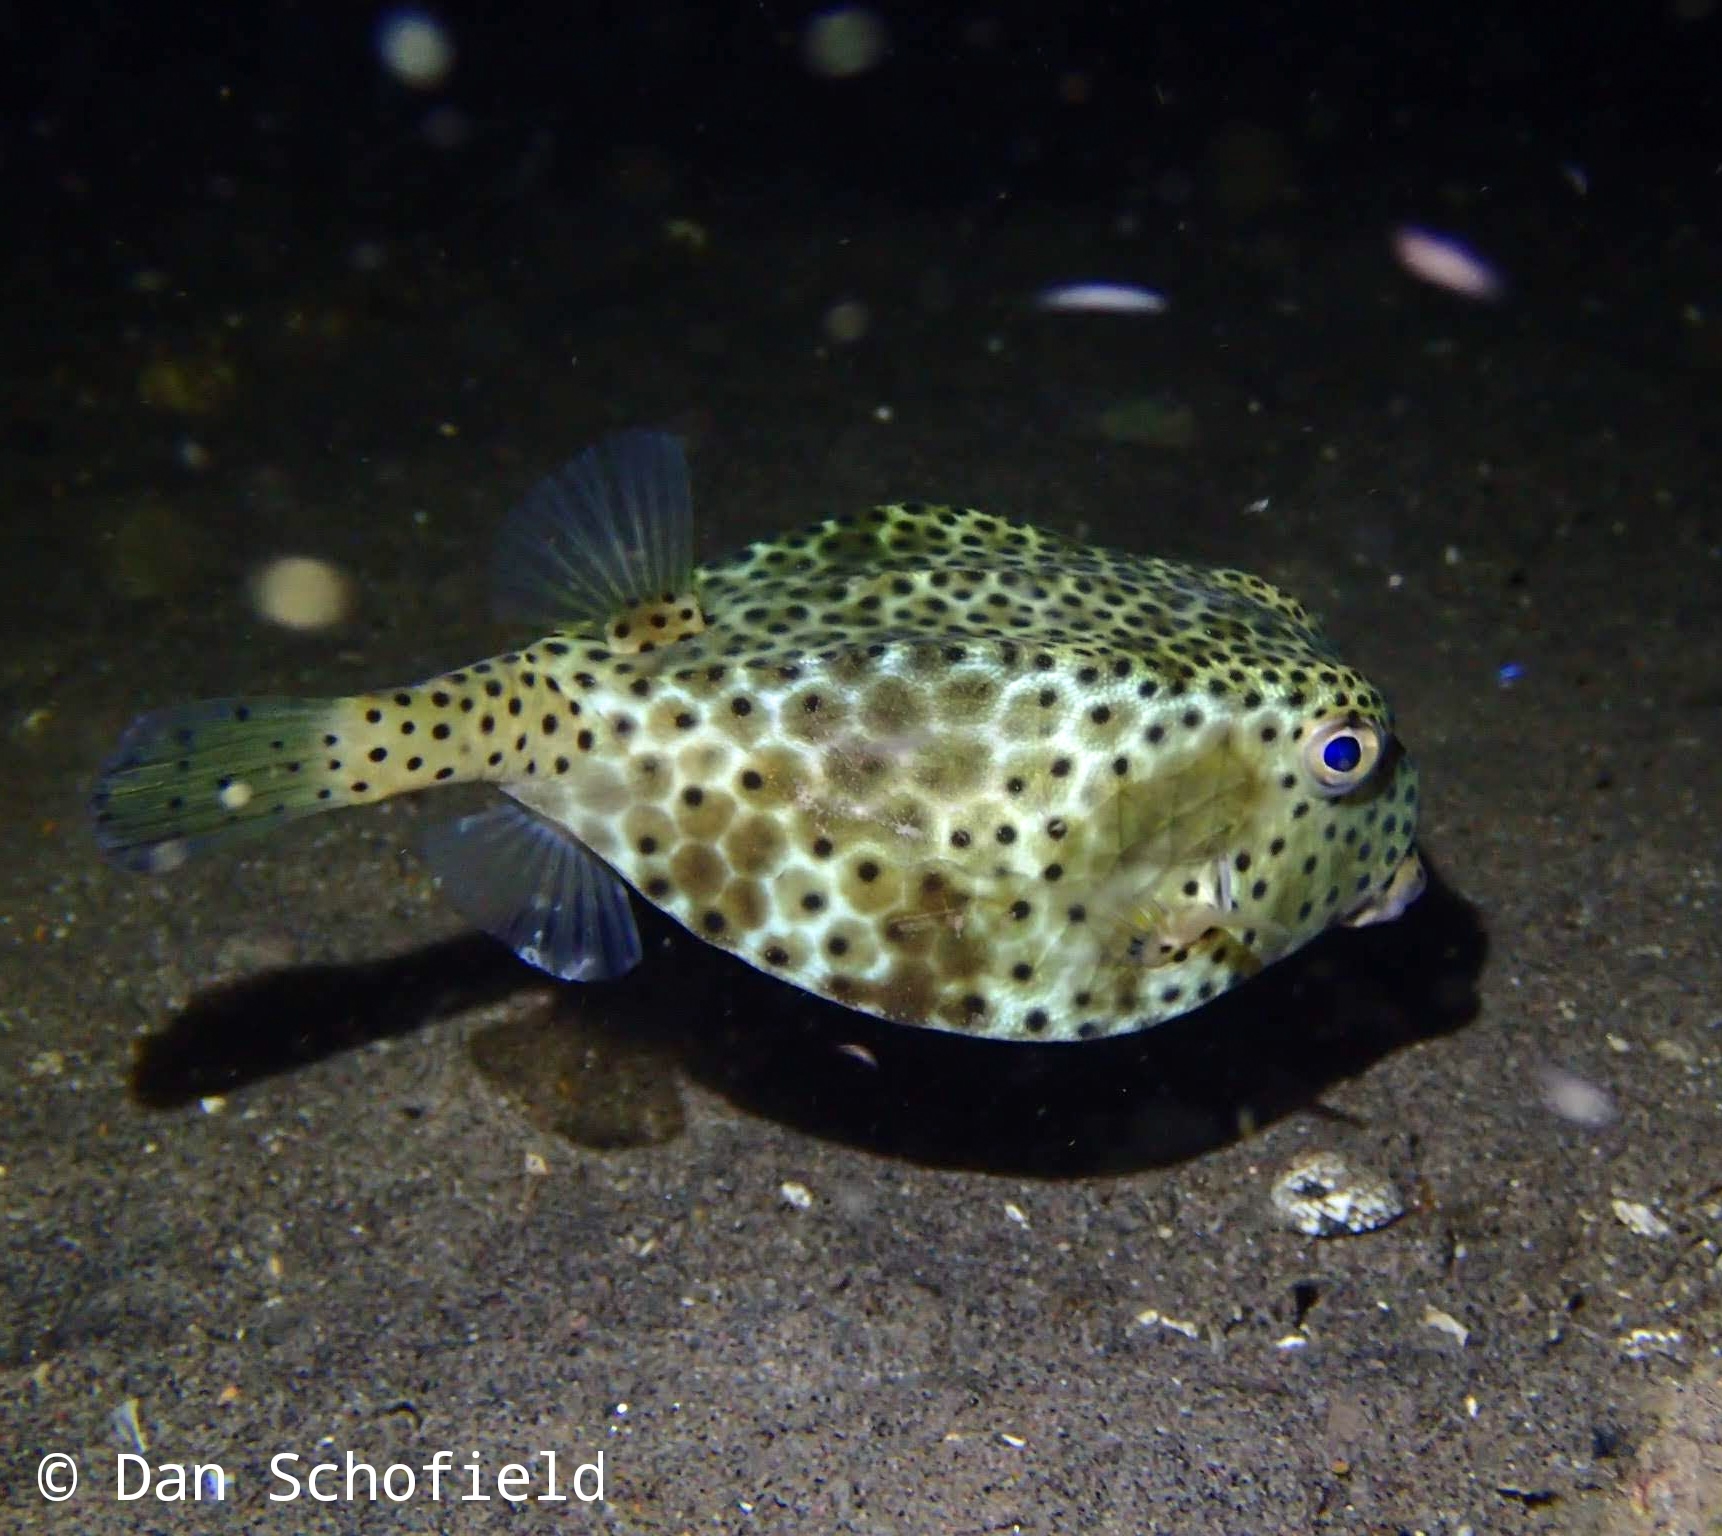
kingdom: Animalia
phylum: Chordata
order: Tetraodontiformes
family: Ostraciidae
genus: Ostracion
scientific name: Ostracion rhinorhynchos
